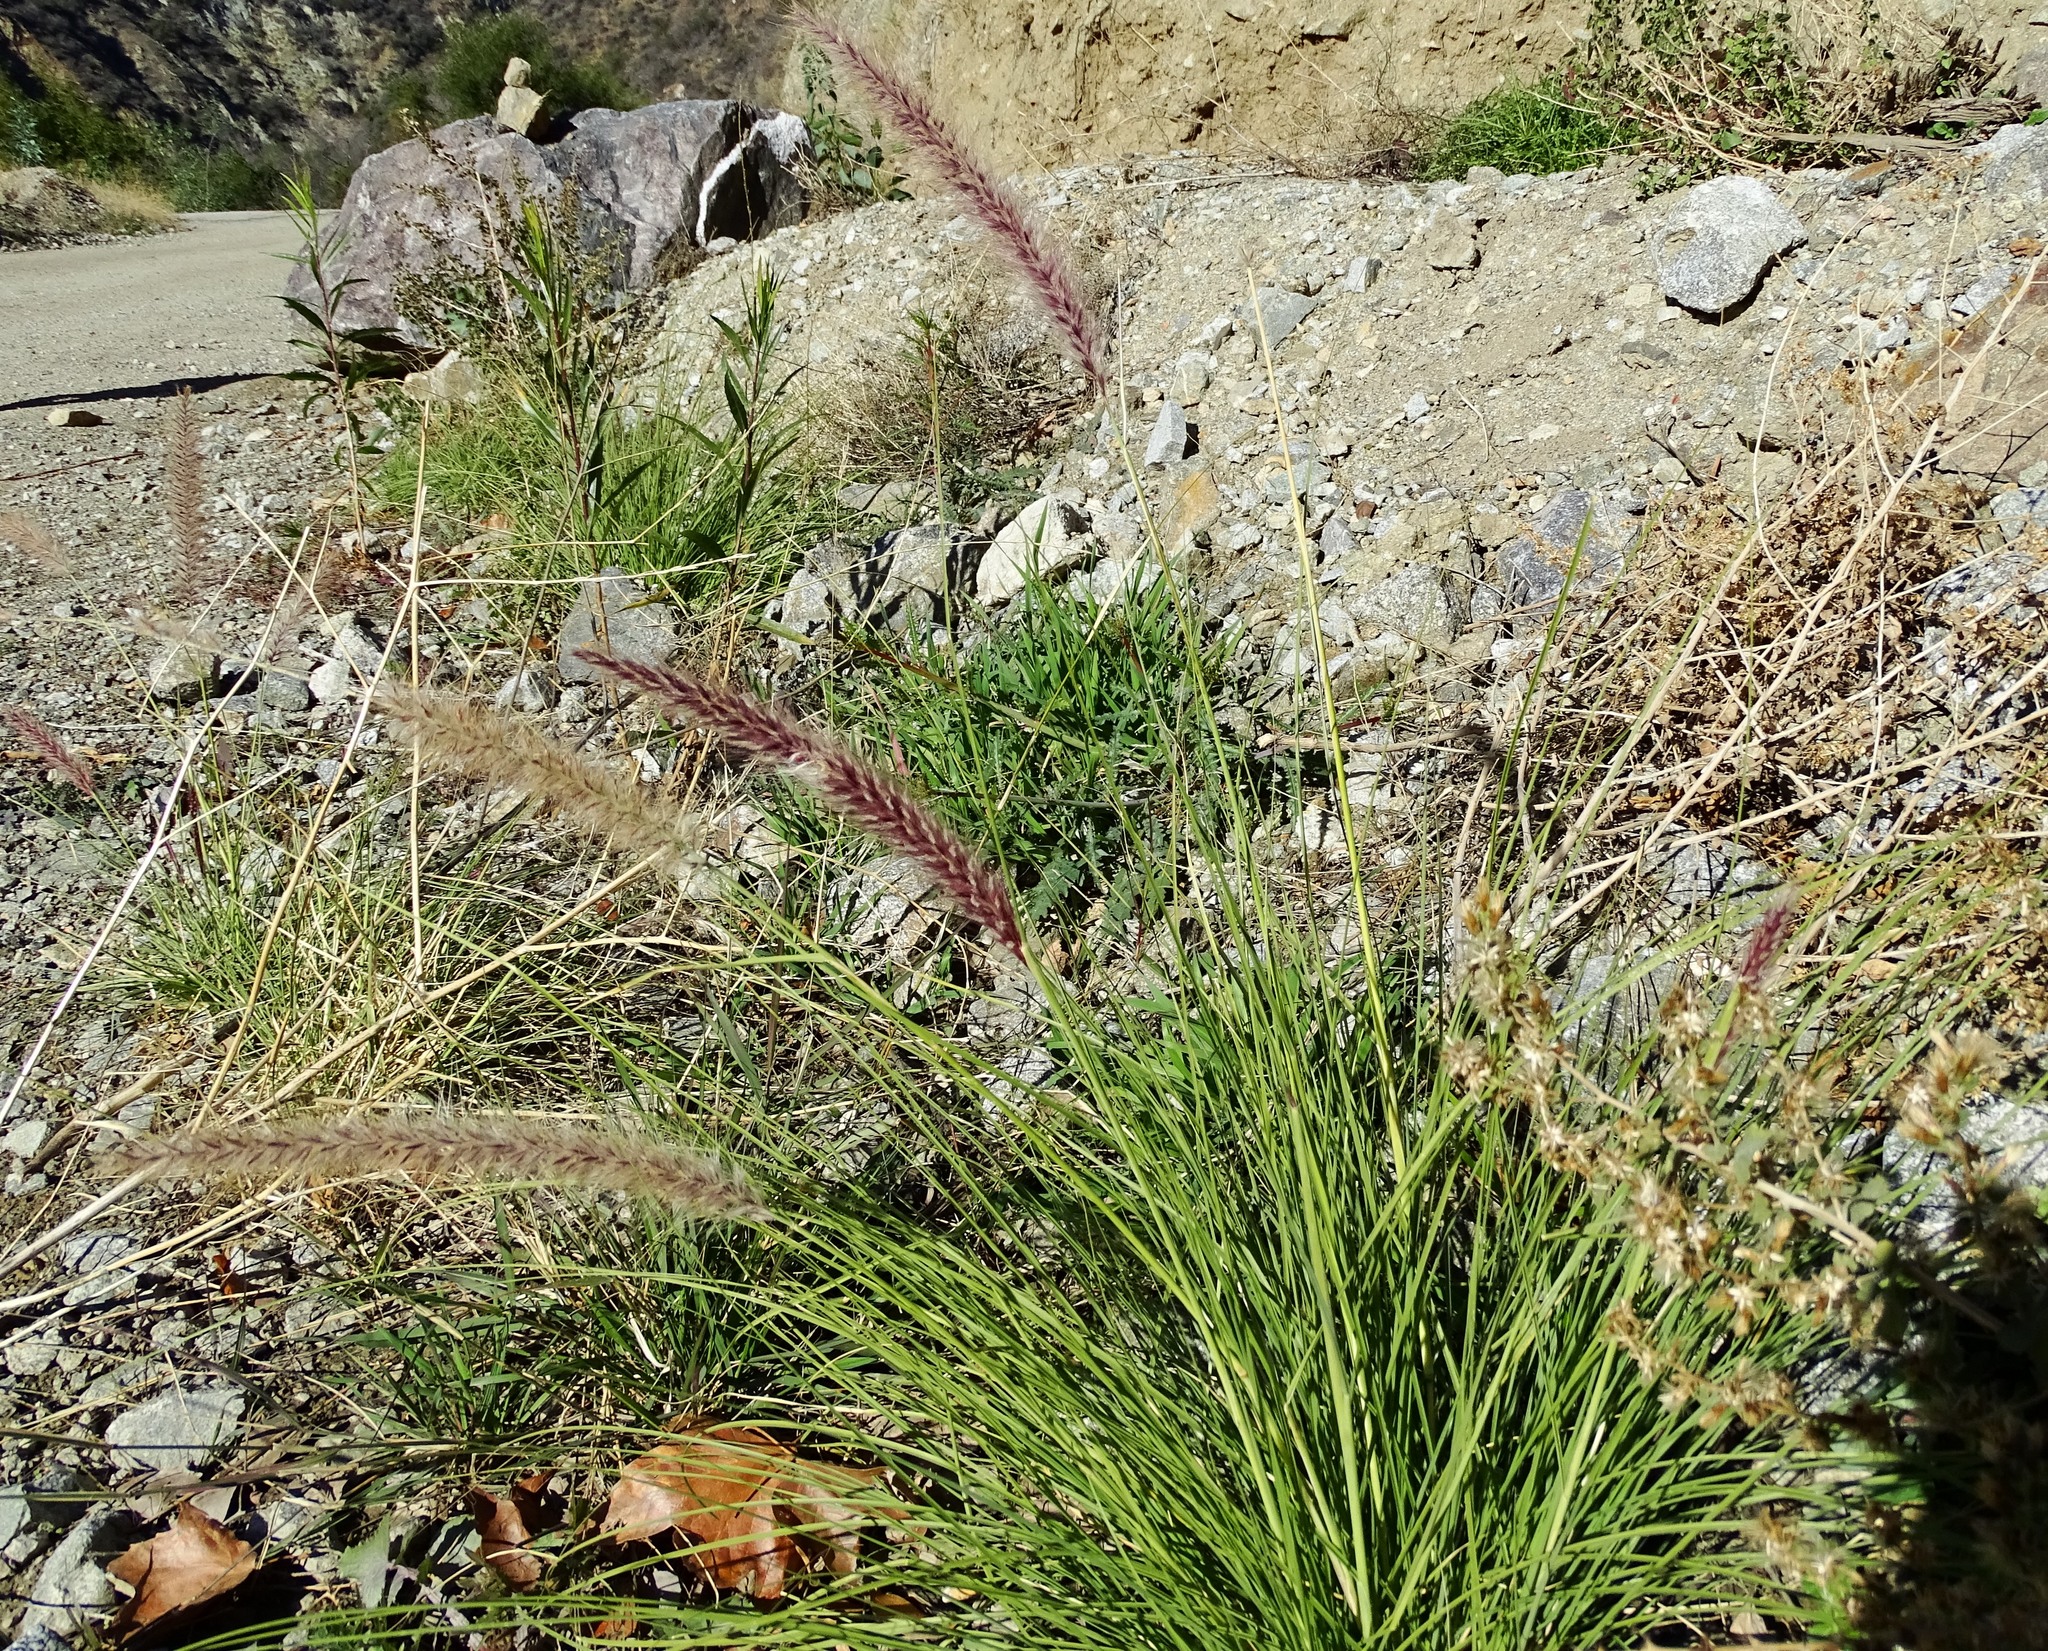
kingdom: Plantae
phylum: Tracheophyta
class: Liliopsida
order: Poales
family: Poaceae
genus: Cenchrus
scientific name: Cenchrus setaceus
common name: Crimson fountaingrass
